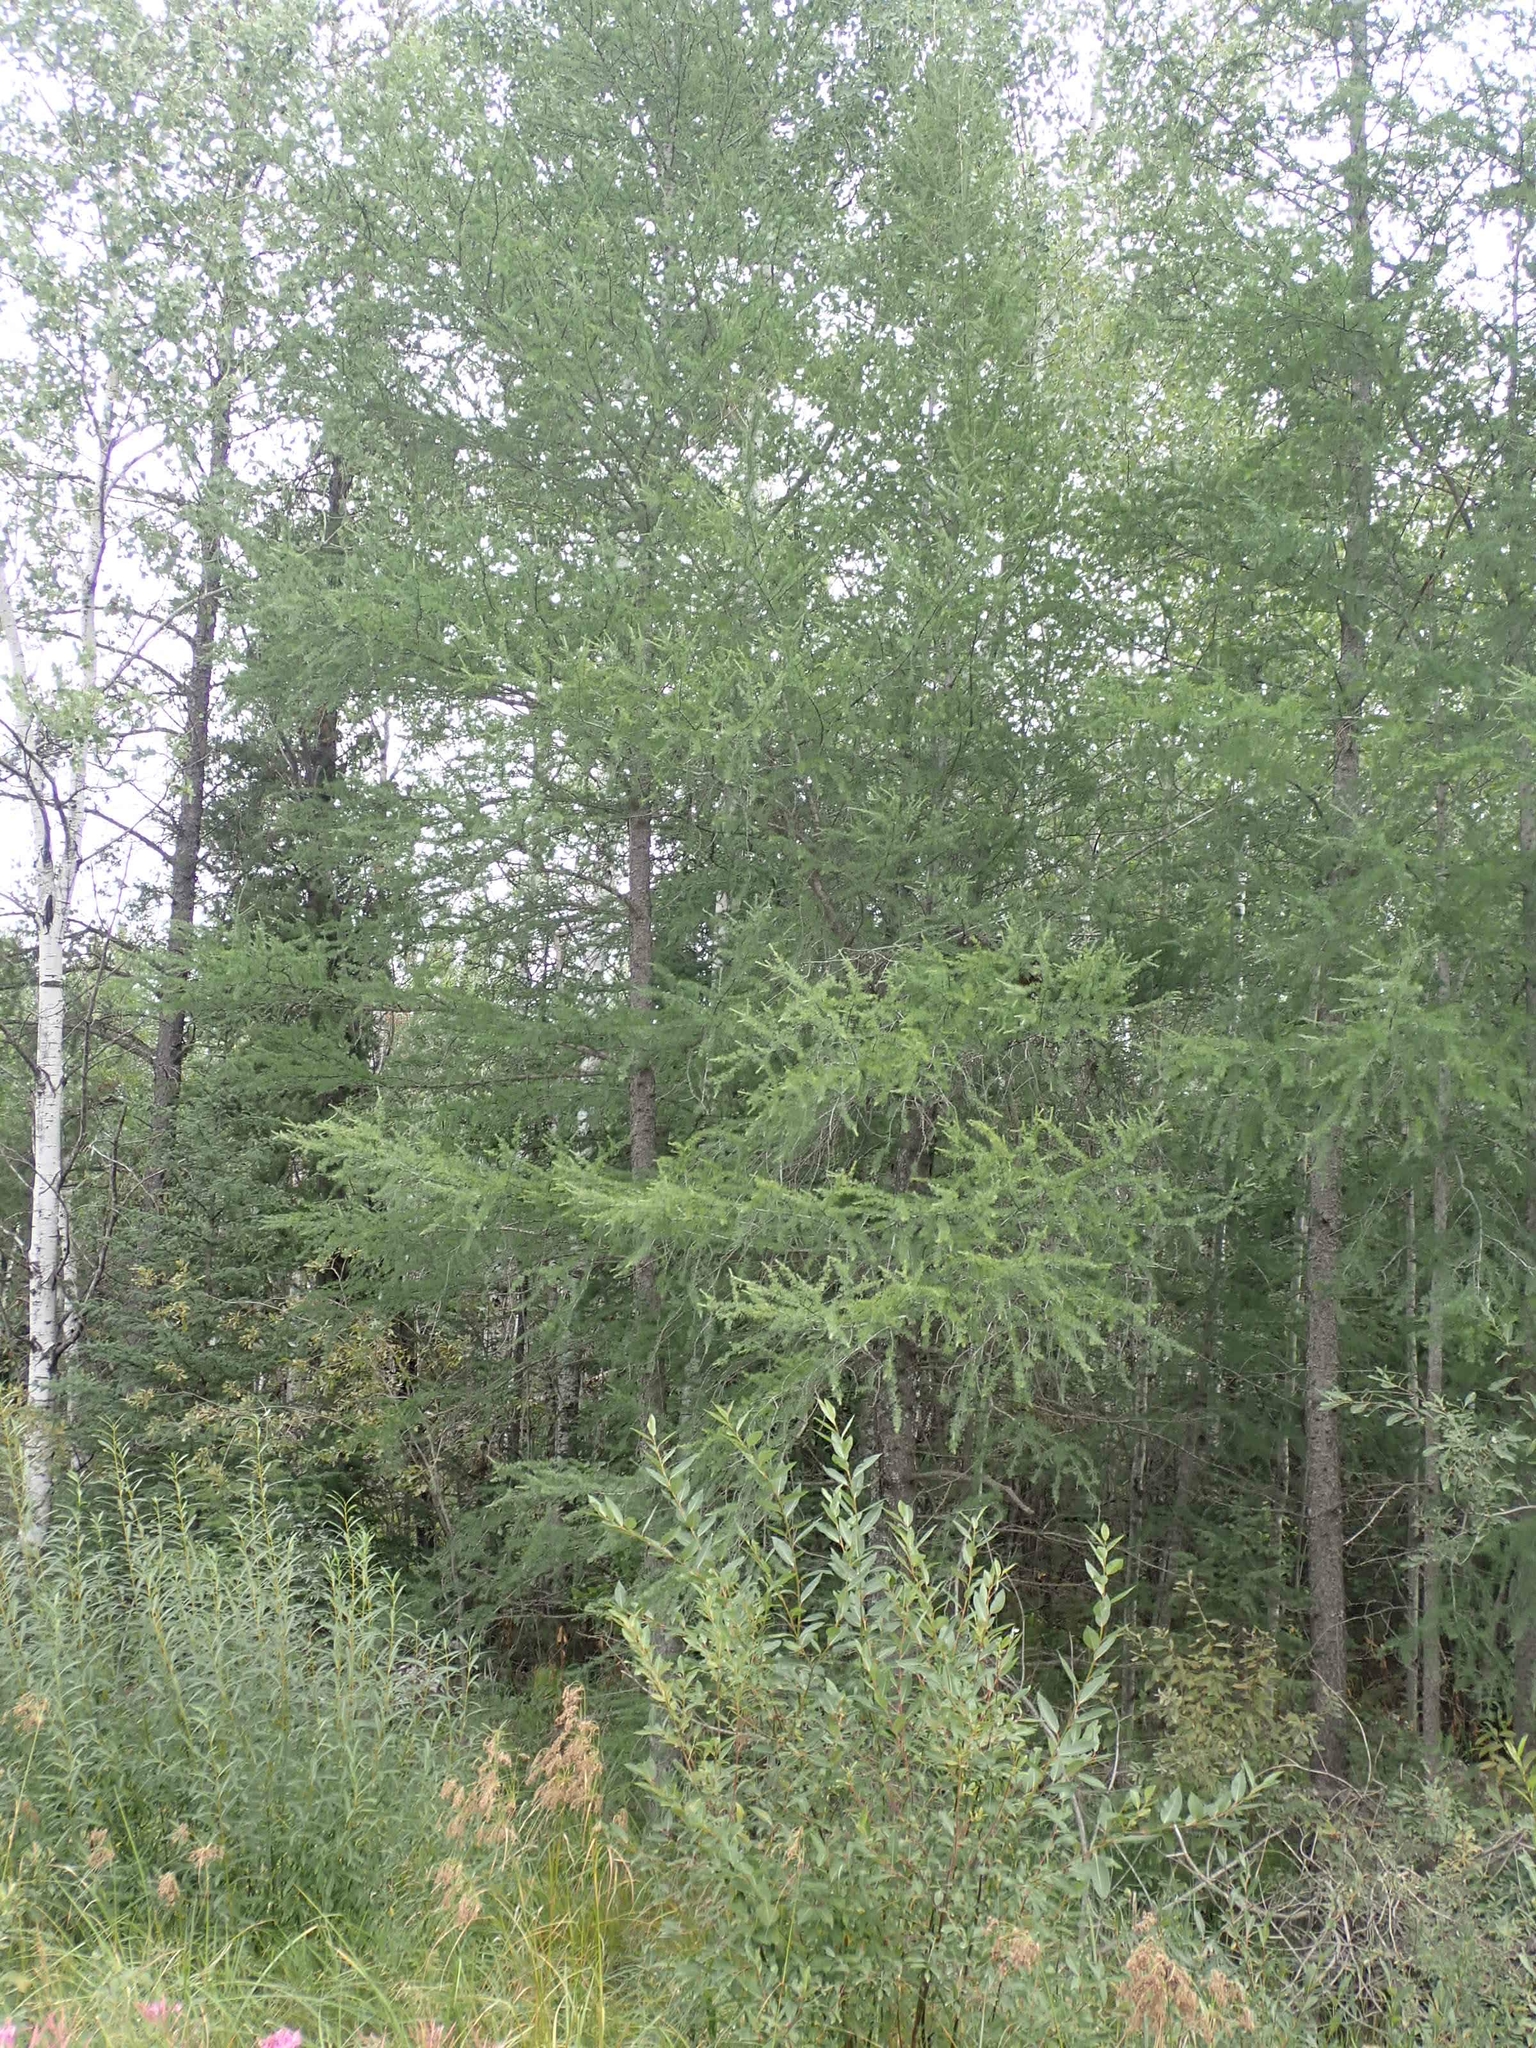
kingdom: Plantae
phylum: Tracheophyta
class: Pinopsida
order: Pinales
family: Pinaceae
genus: Larix
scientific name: Larix laricina
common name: American larch
